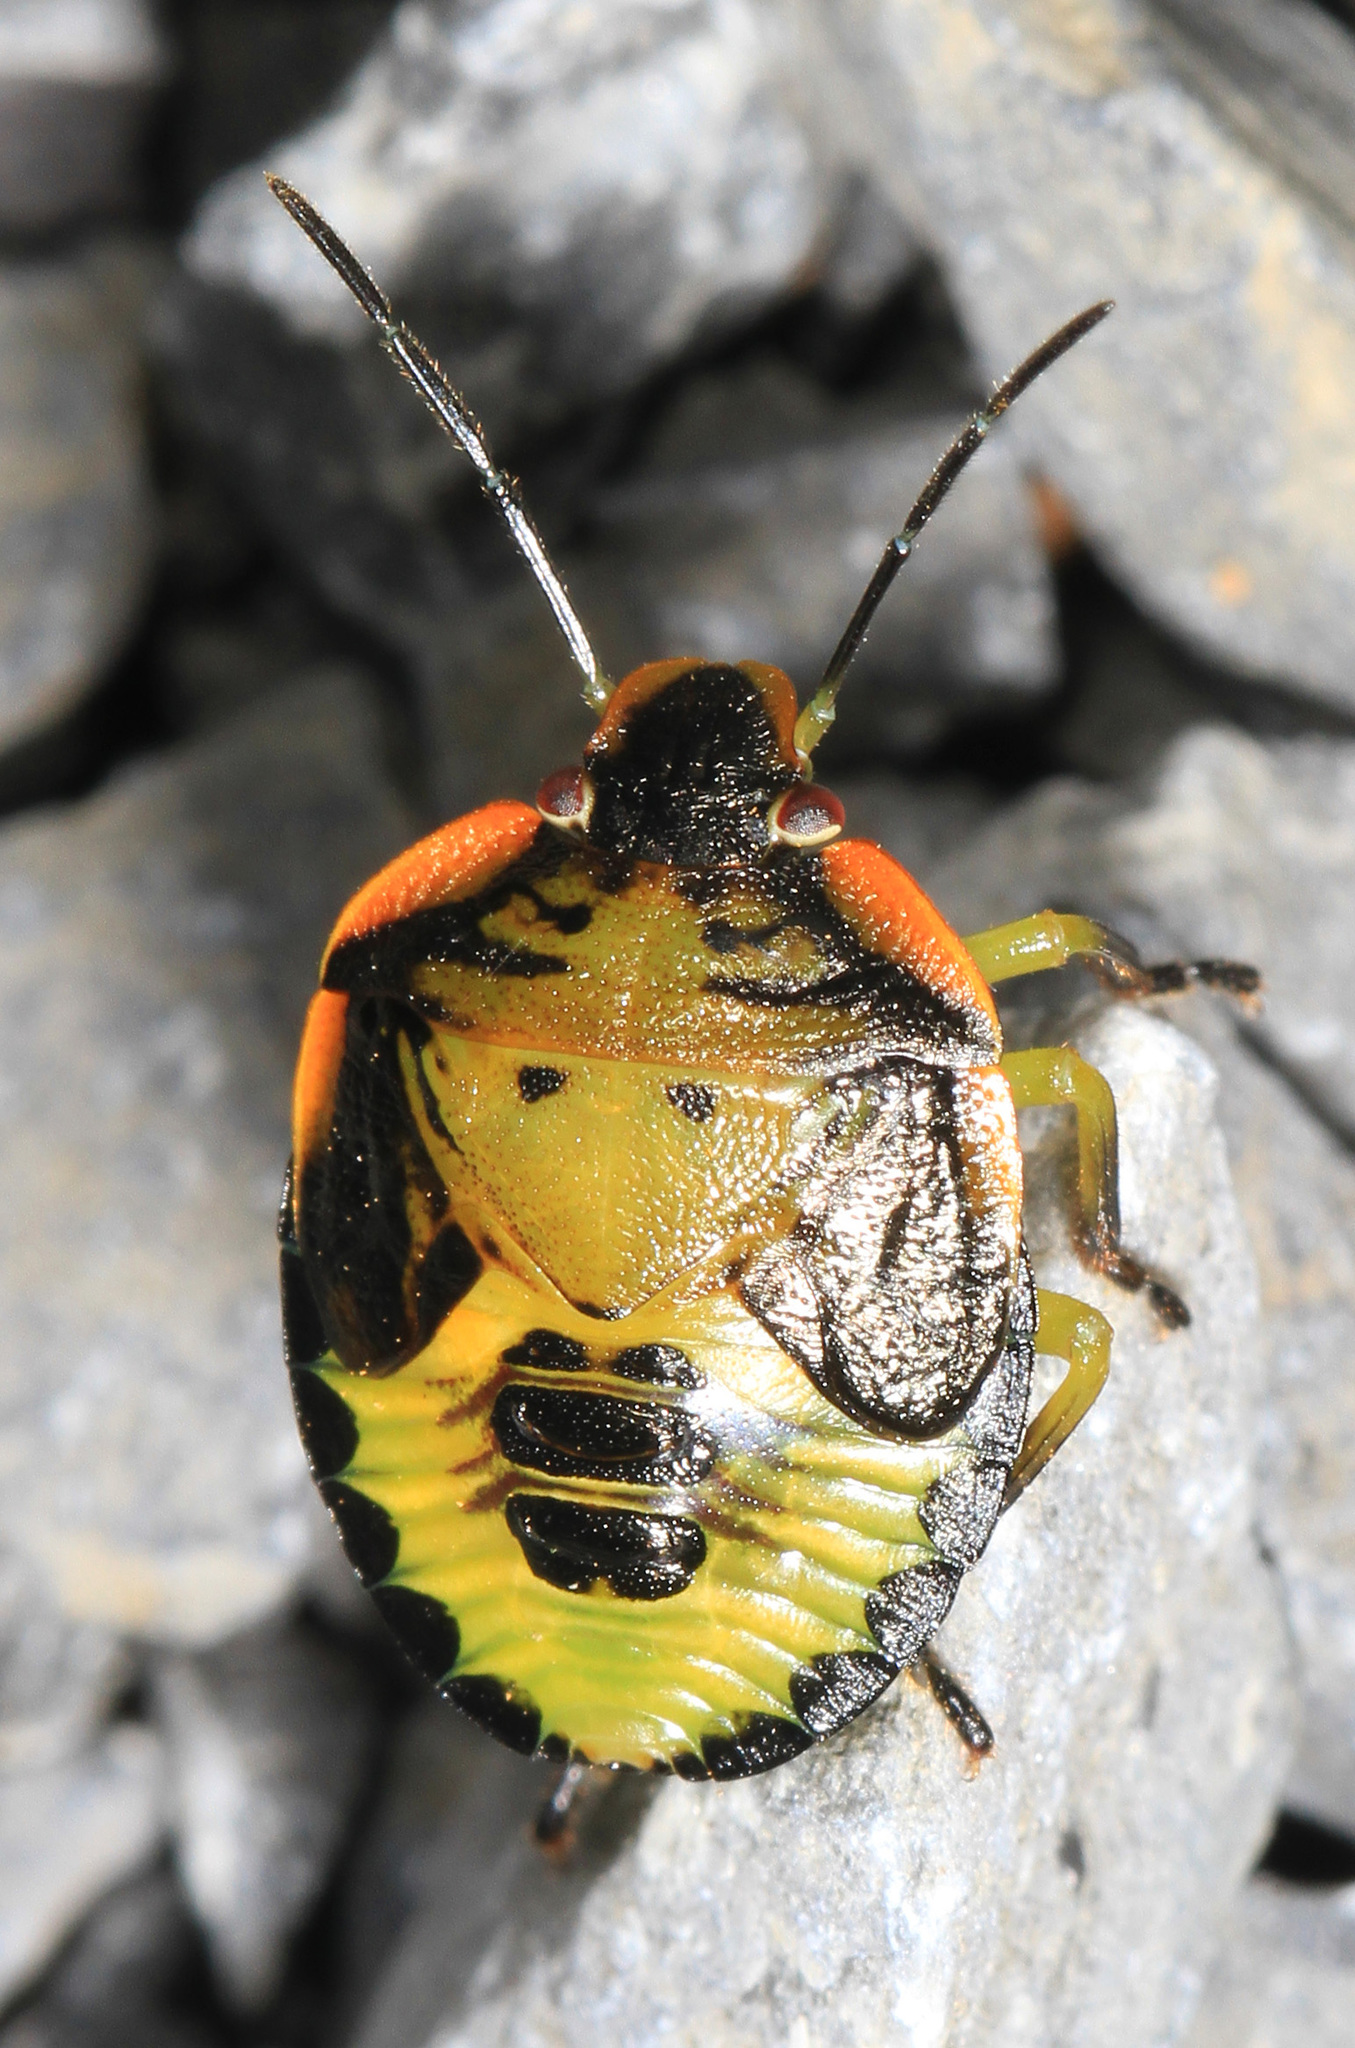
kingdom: Animalia
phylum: Arthropoda
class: Insecta
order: Hemiptera
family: Pentatomidae
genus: Chinavia
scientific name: Chinavia hilaris
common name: Green stink bug
